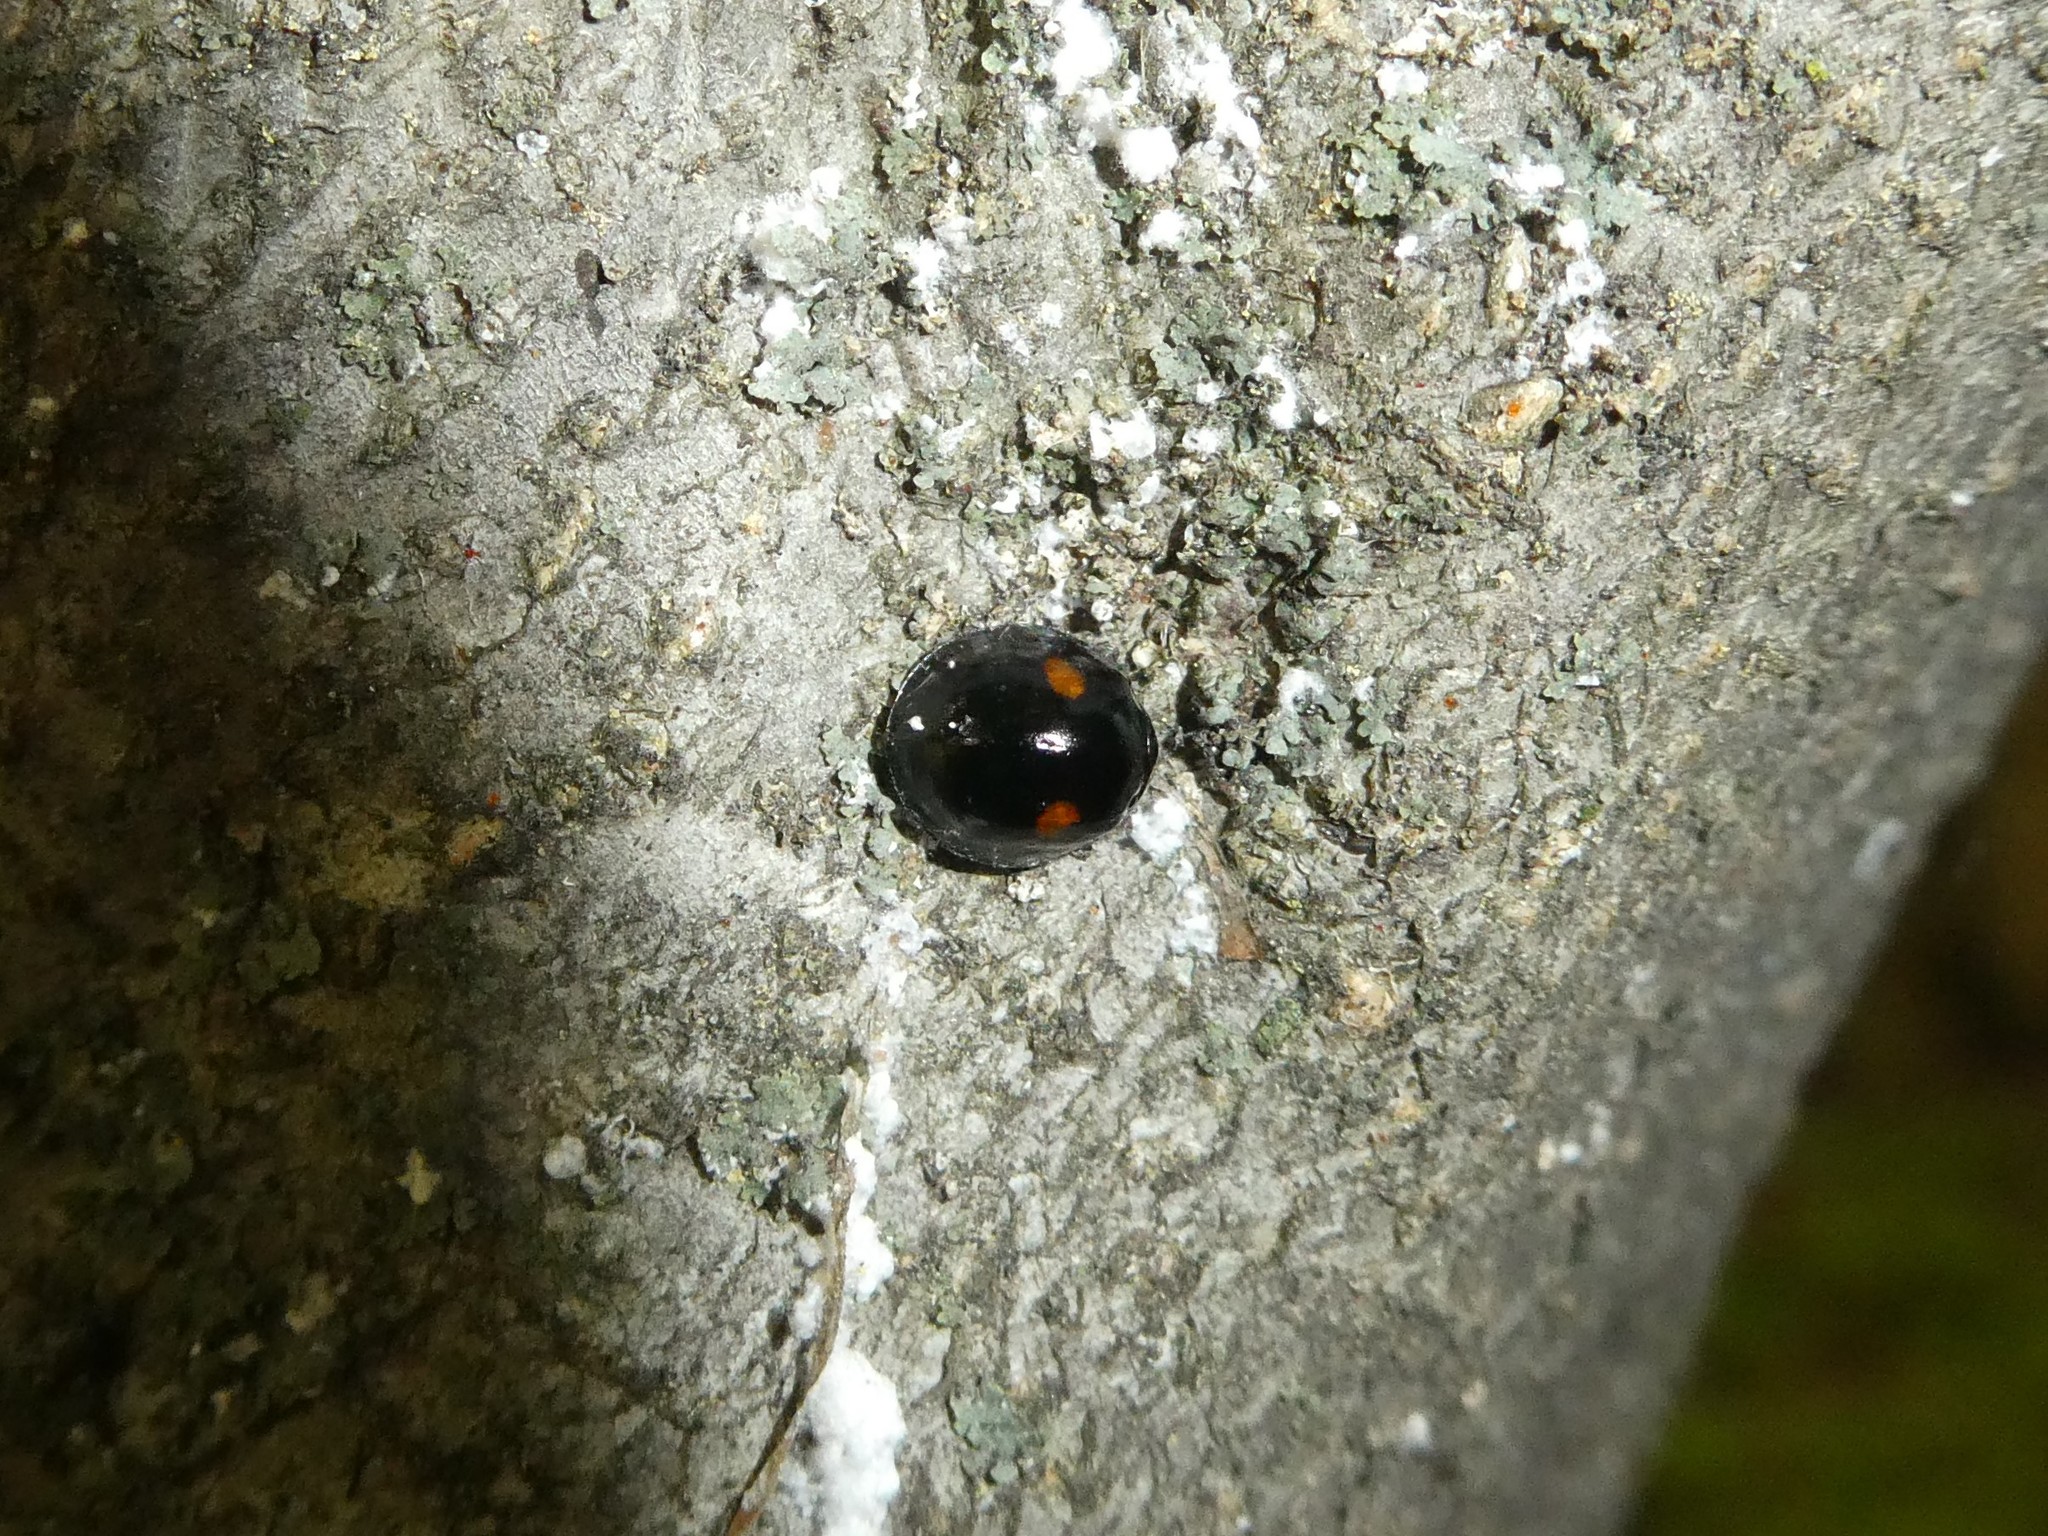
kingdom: Animalia
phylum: Arthropoda
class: Insecta
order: Coleoptera
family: Coccinellidae
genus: Chilocorus
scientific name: Chilocorus stigma
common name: Twicestabbed lady beetle
